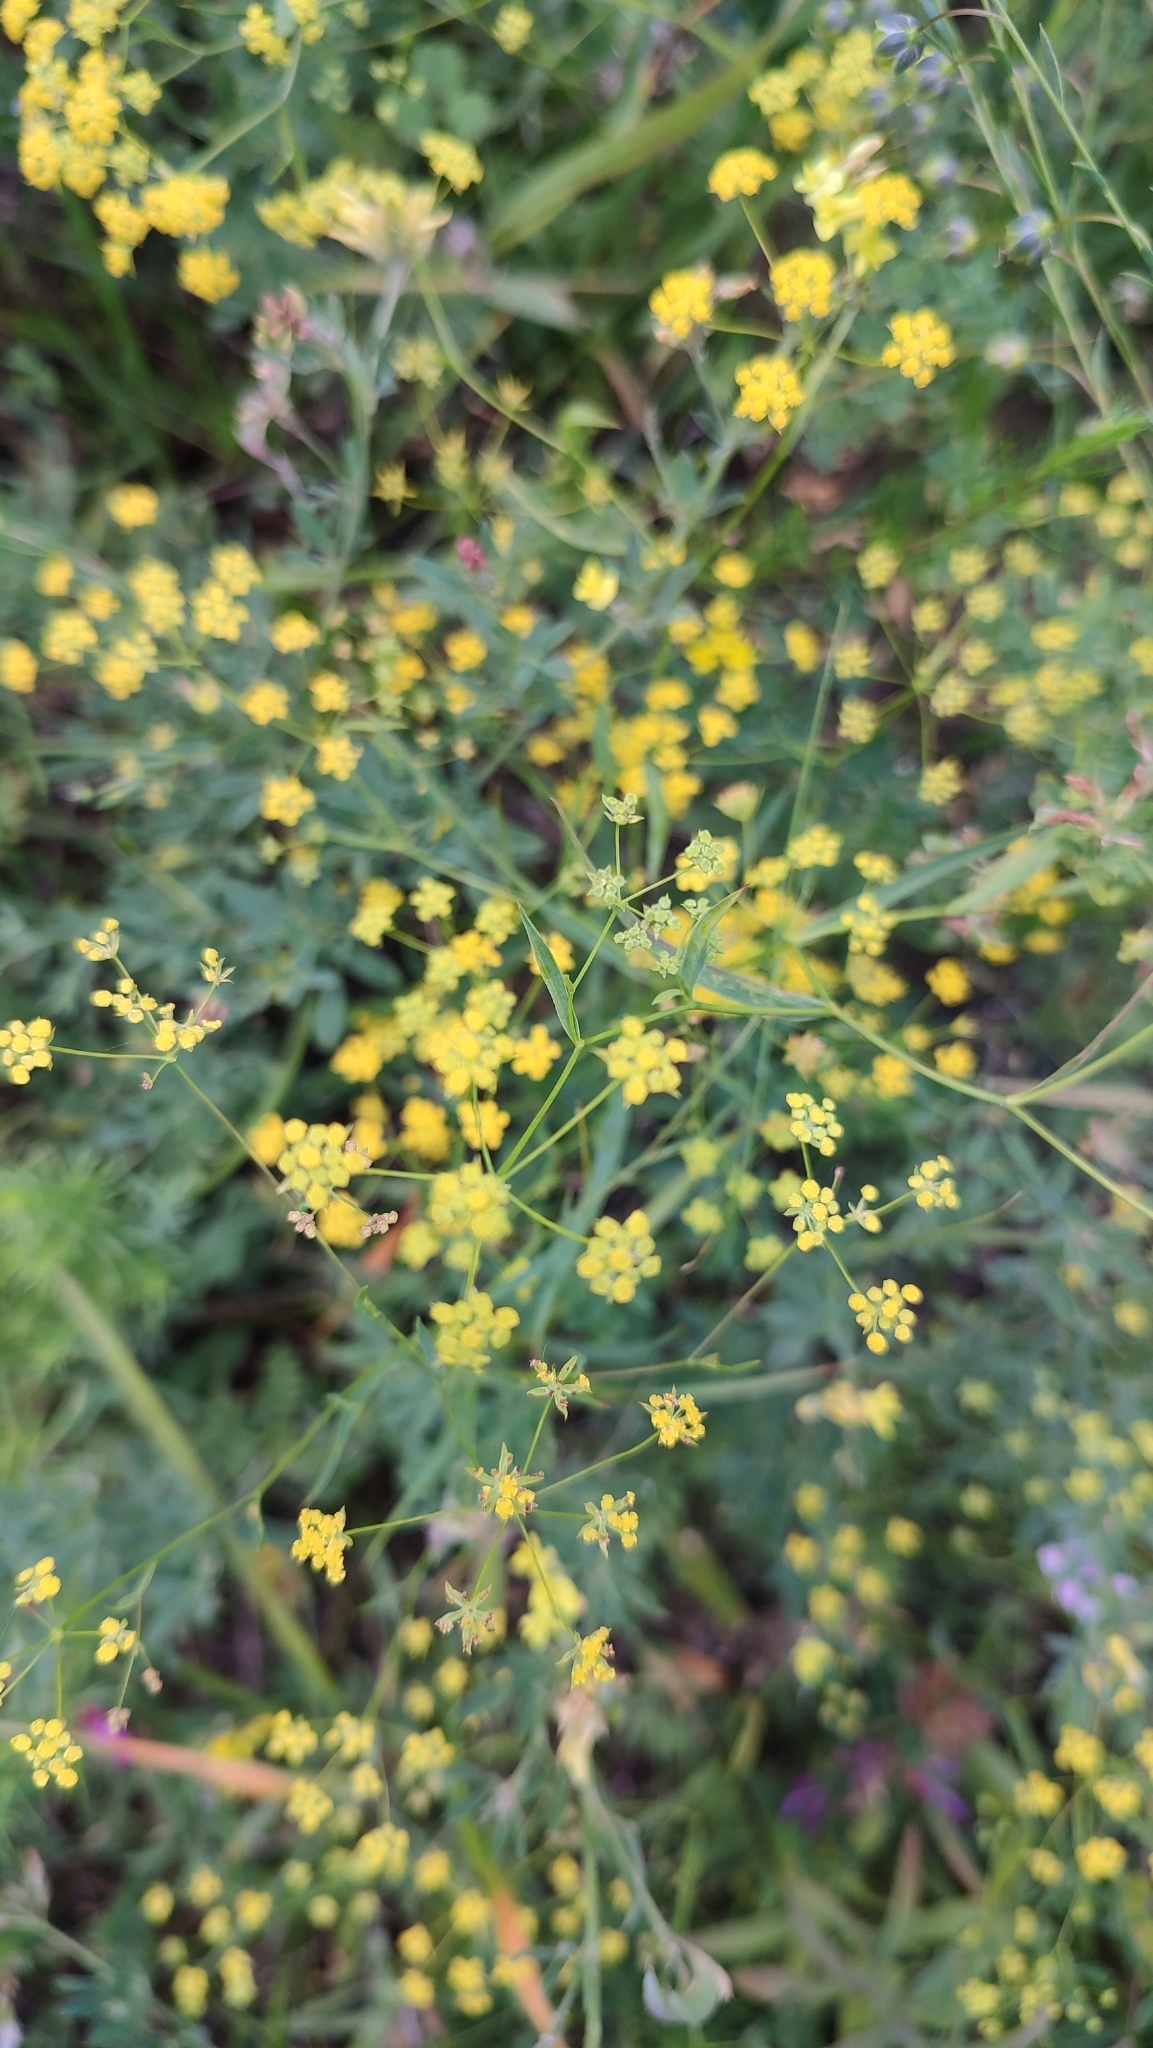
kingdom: Plantae
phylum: Tracheophyta
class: Magnoliopsida
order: Apiales
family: Apiaceae
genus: Bupleurum
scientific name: Bupleurum scorzonerifolium
